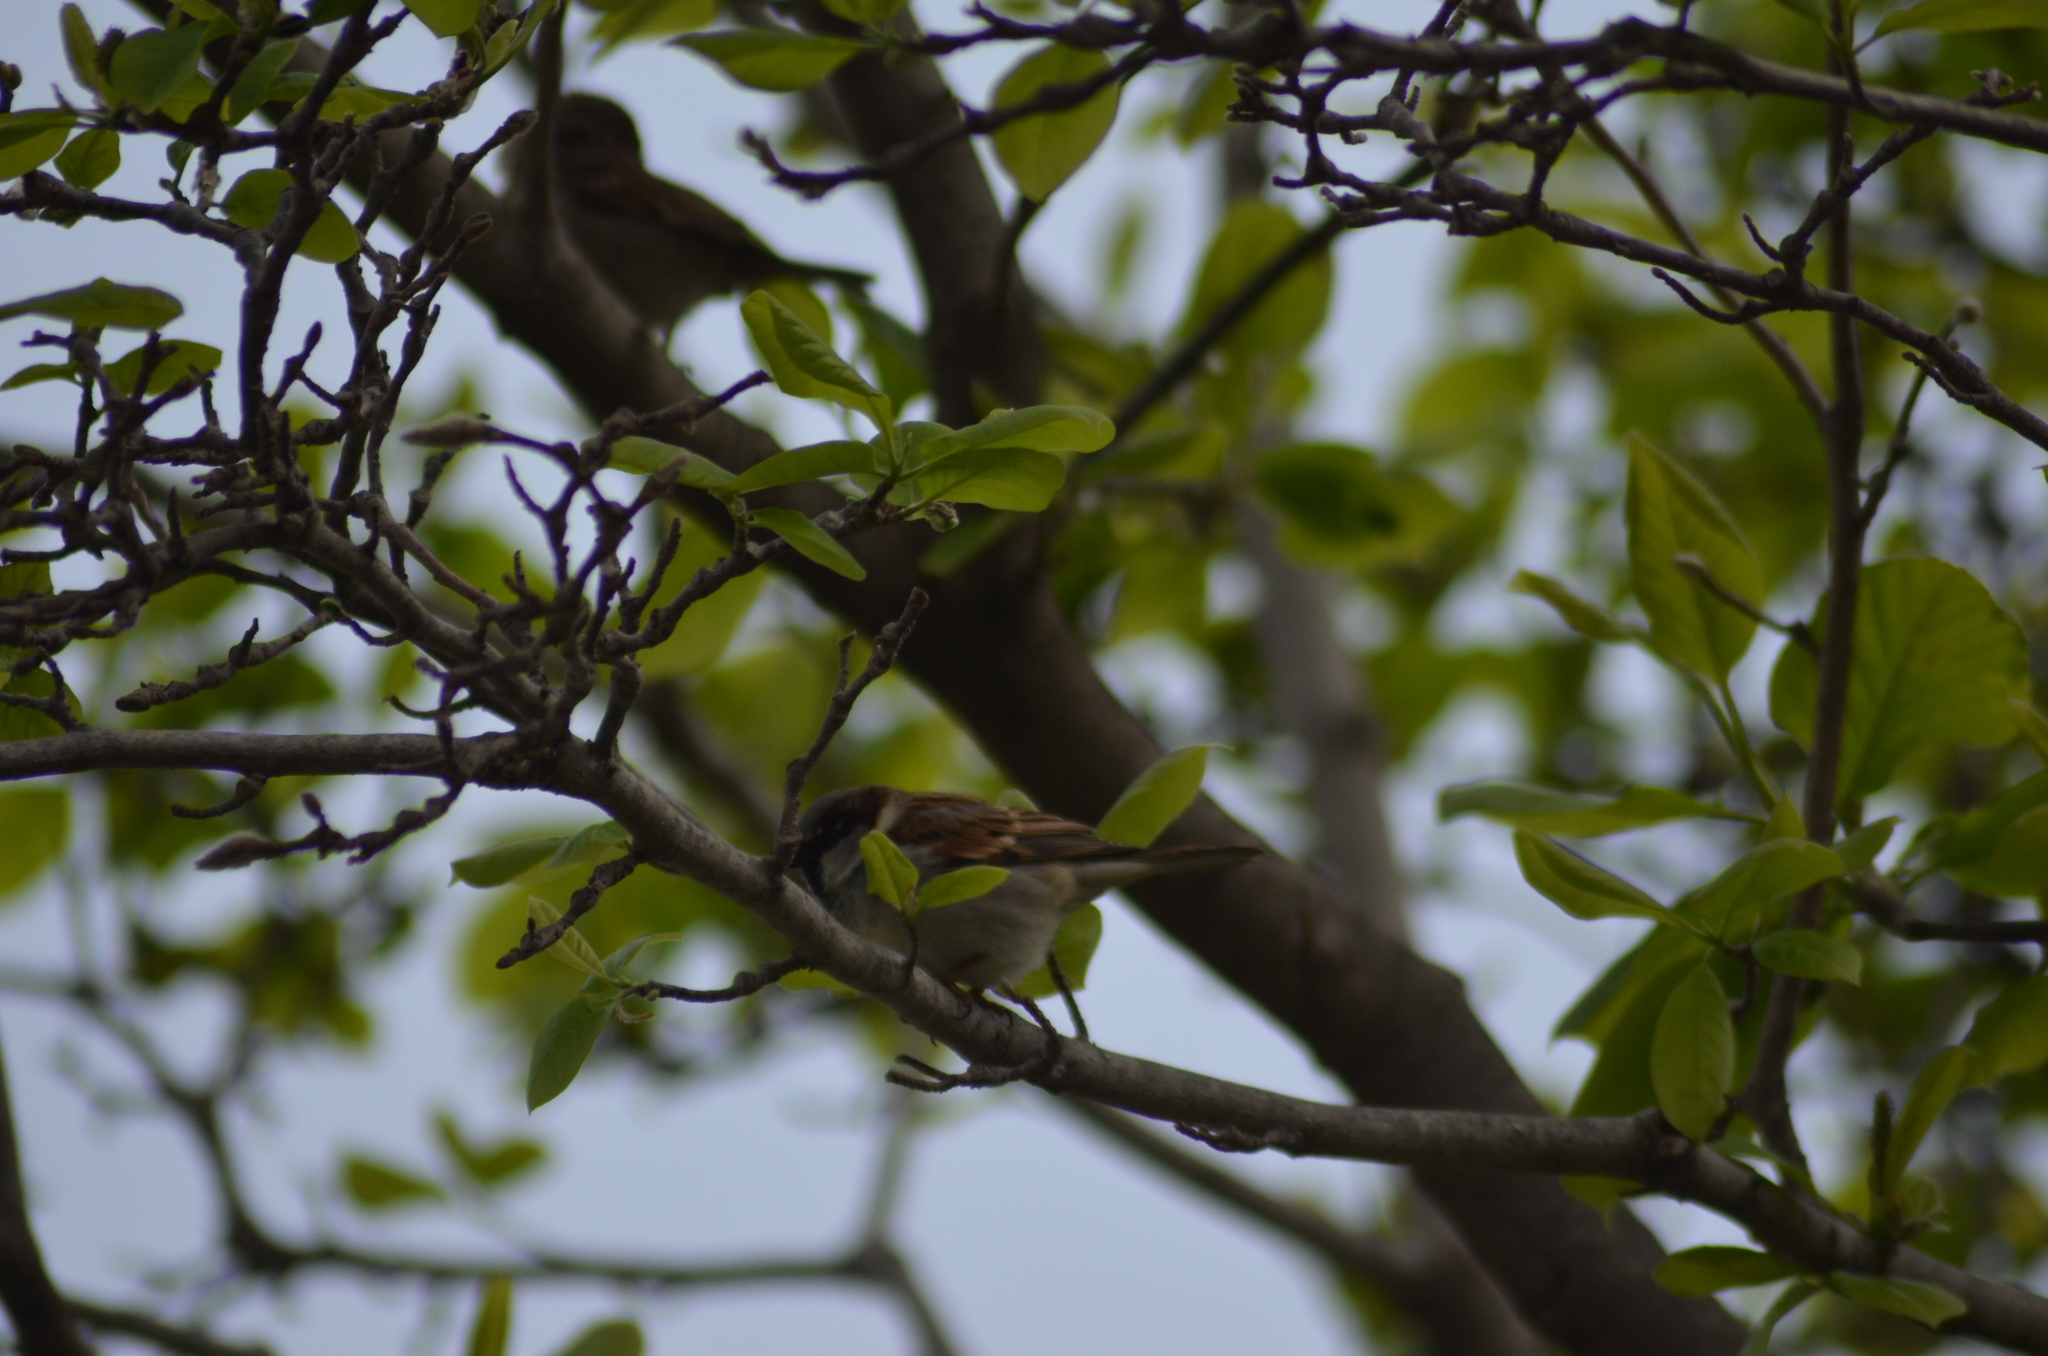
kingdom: Animalia
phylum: Chordata
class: Aves
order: Passeriformes
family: Passeridae
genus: Passer
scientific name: Passer domesticus
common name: House sparrow
